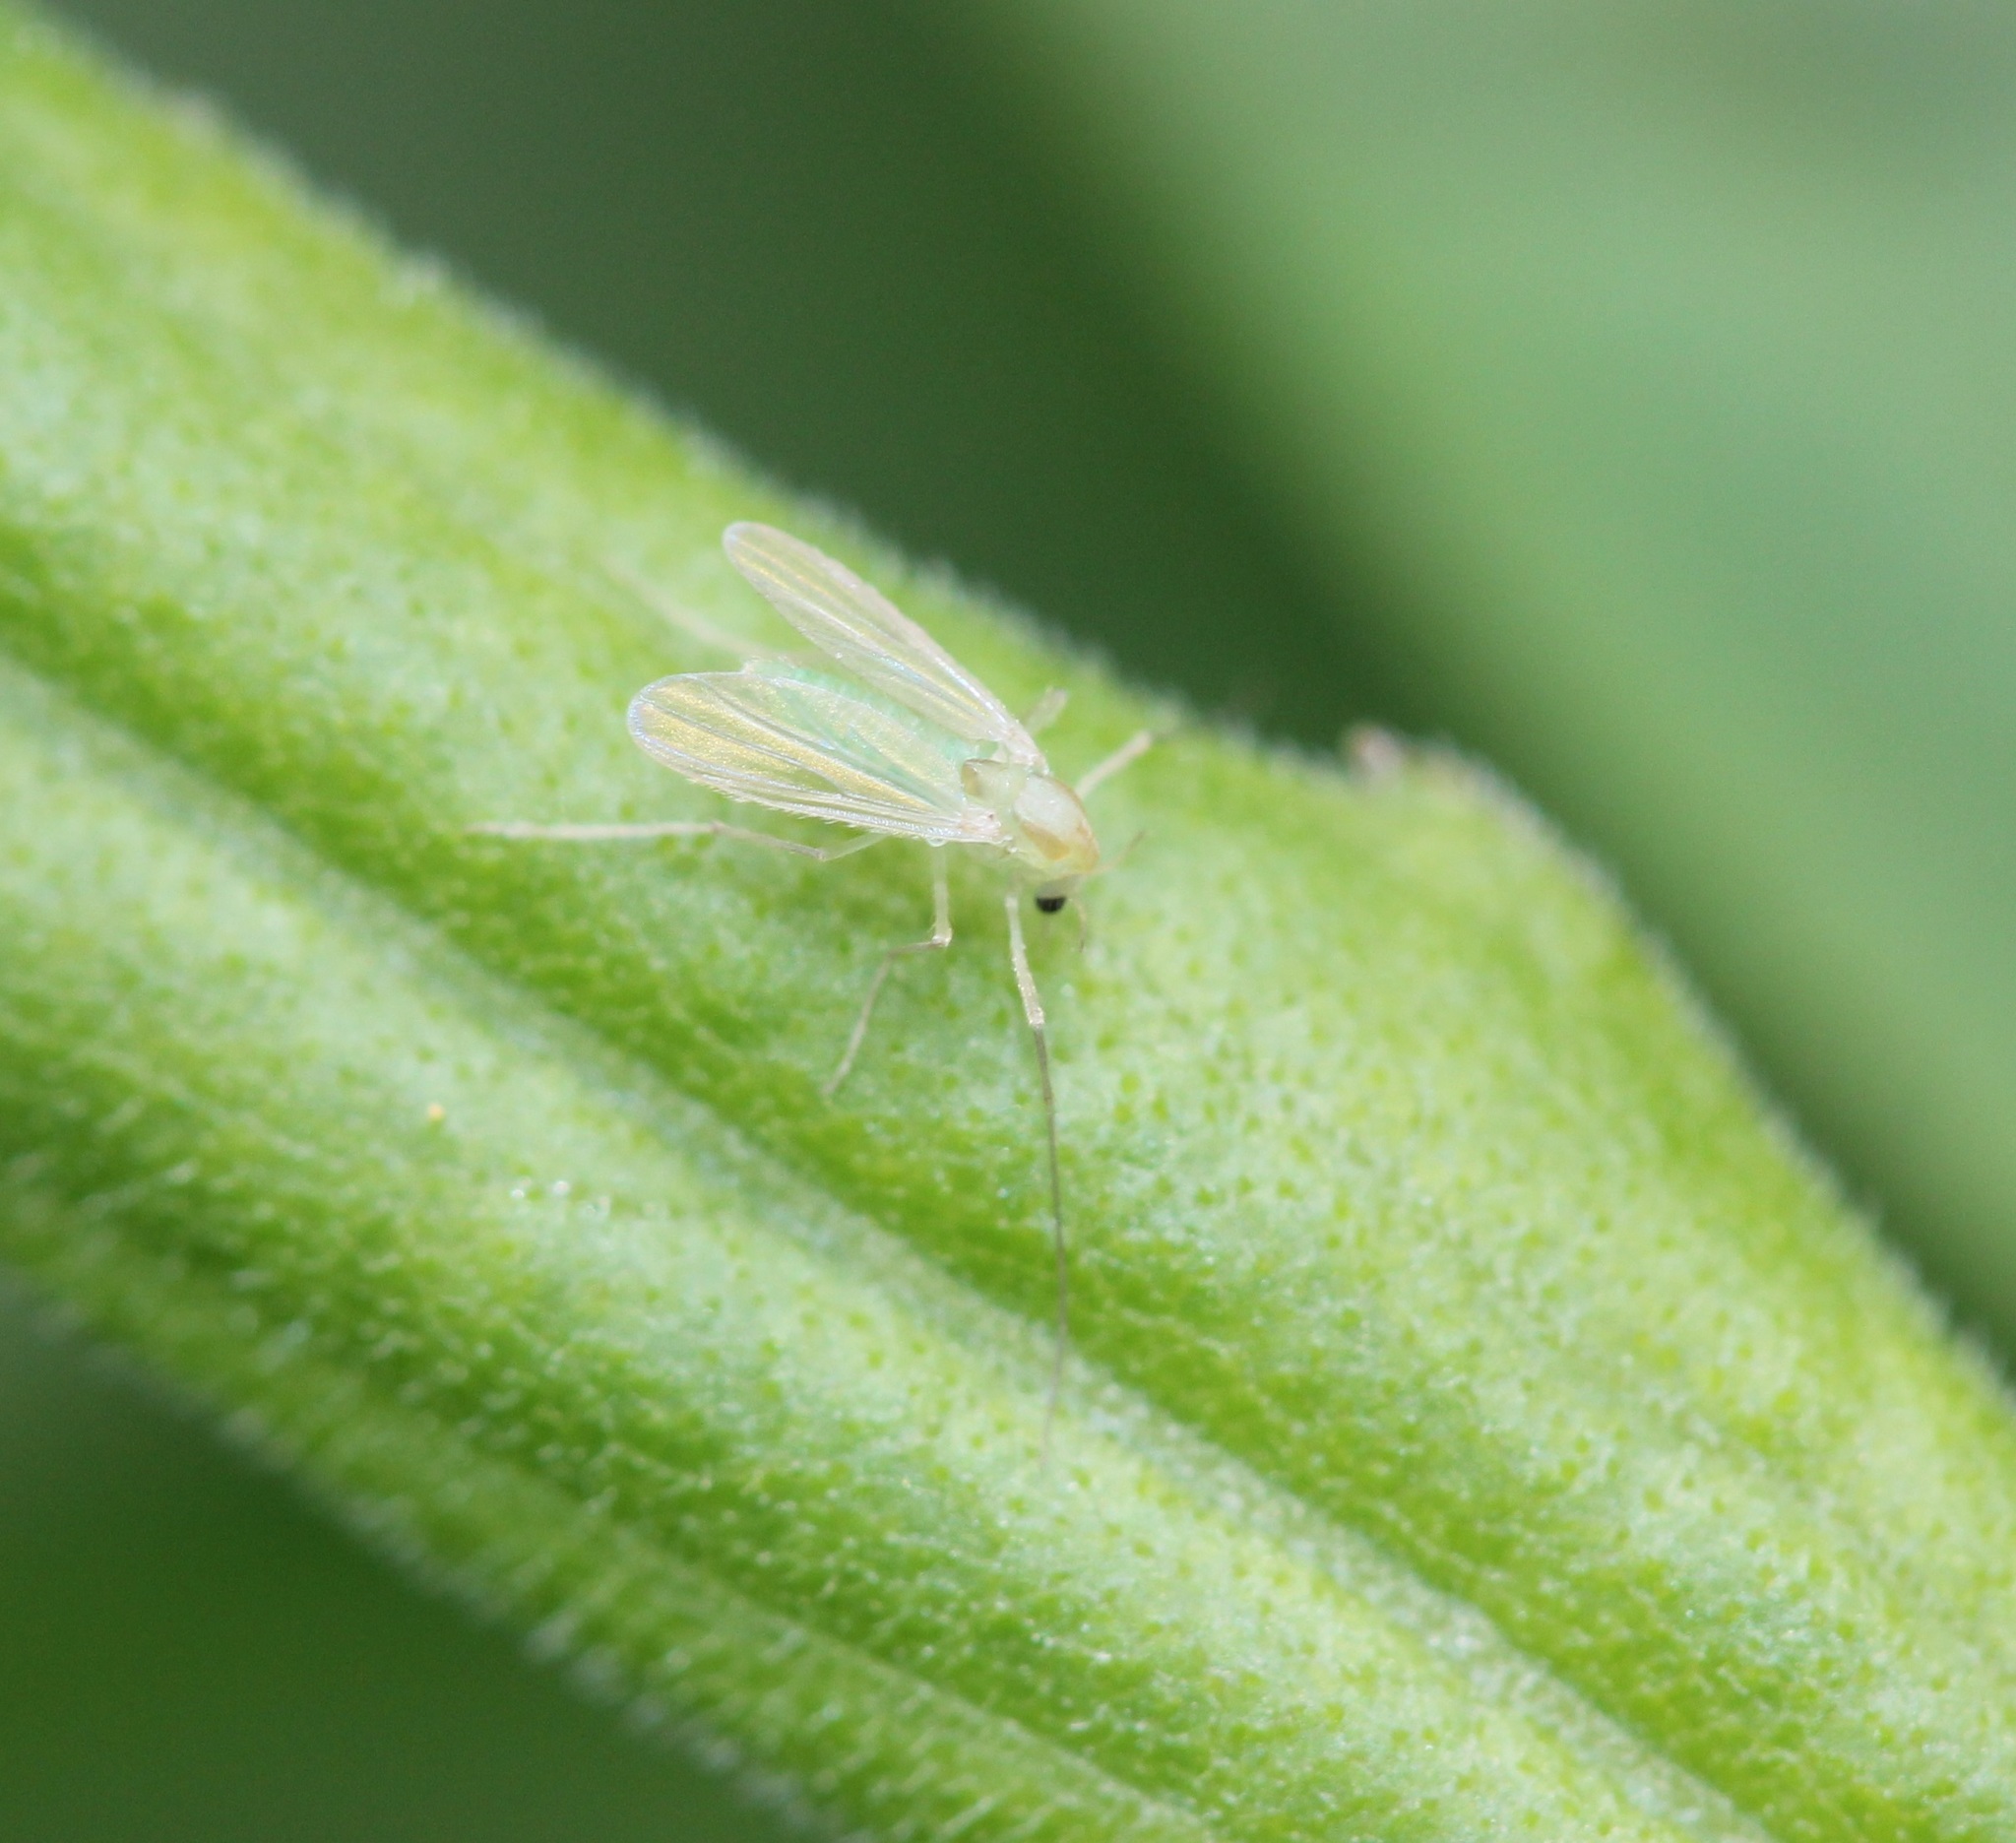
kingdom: Animalia
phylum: Arthropoda
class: Insecta
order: Diptera
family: Chironomidae
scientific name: Chironomidae
